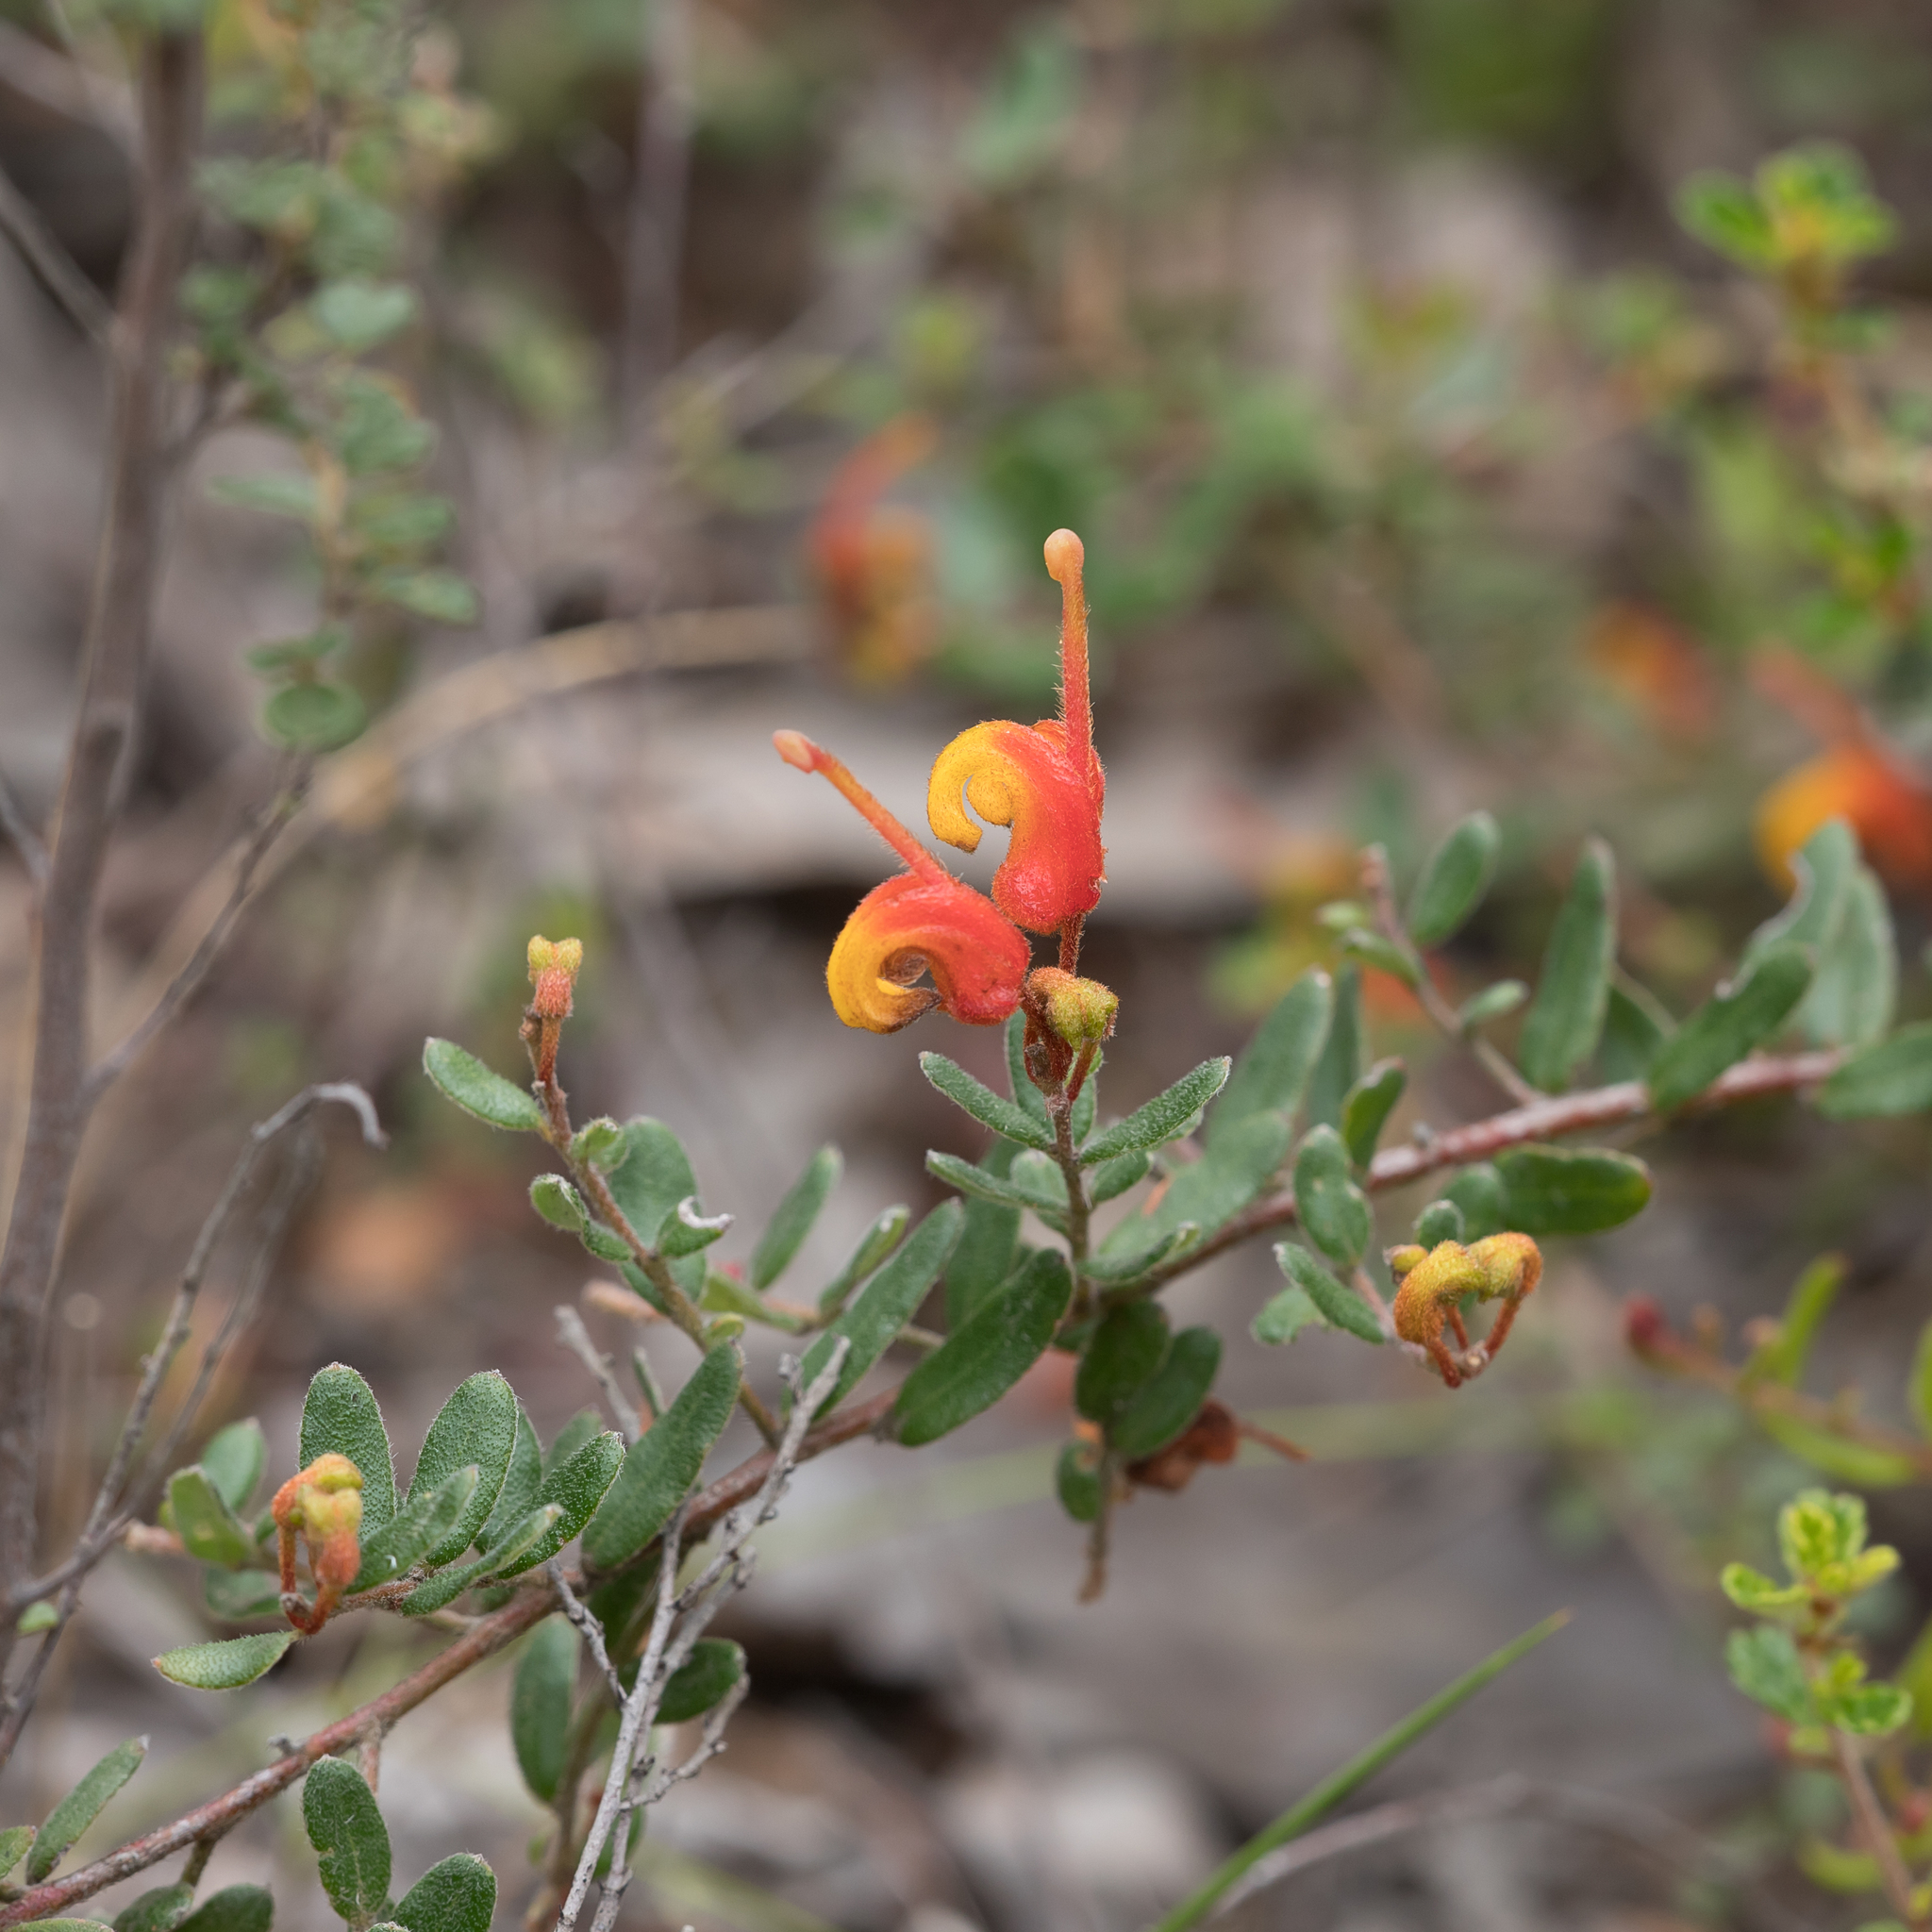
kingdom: Plantae
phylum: Tracheophyta
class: Magnoliopsida
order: Proteales
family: Proteaceae
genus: Grevillea
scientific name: Grevillea alpina
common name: Catclaws grevillea
